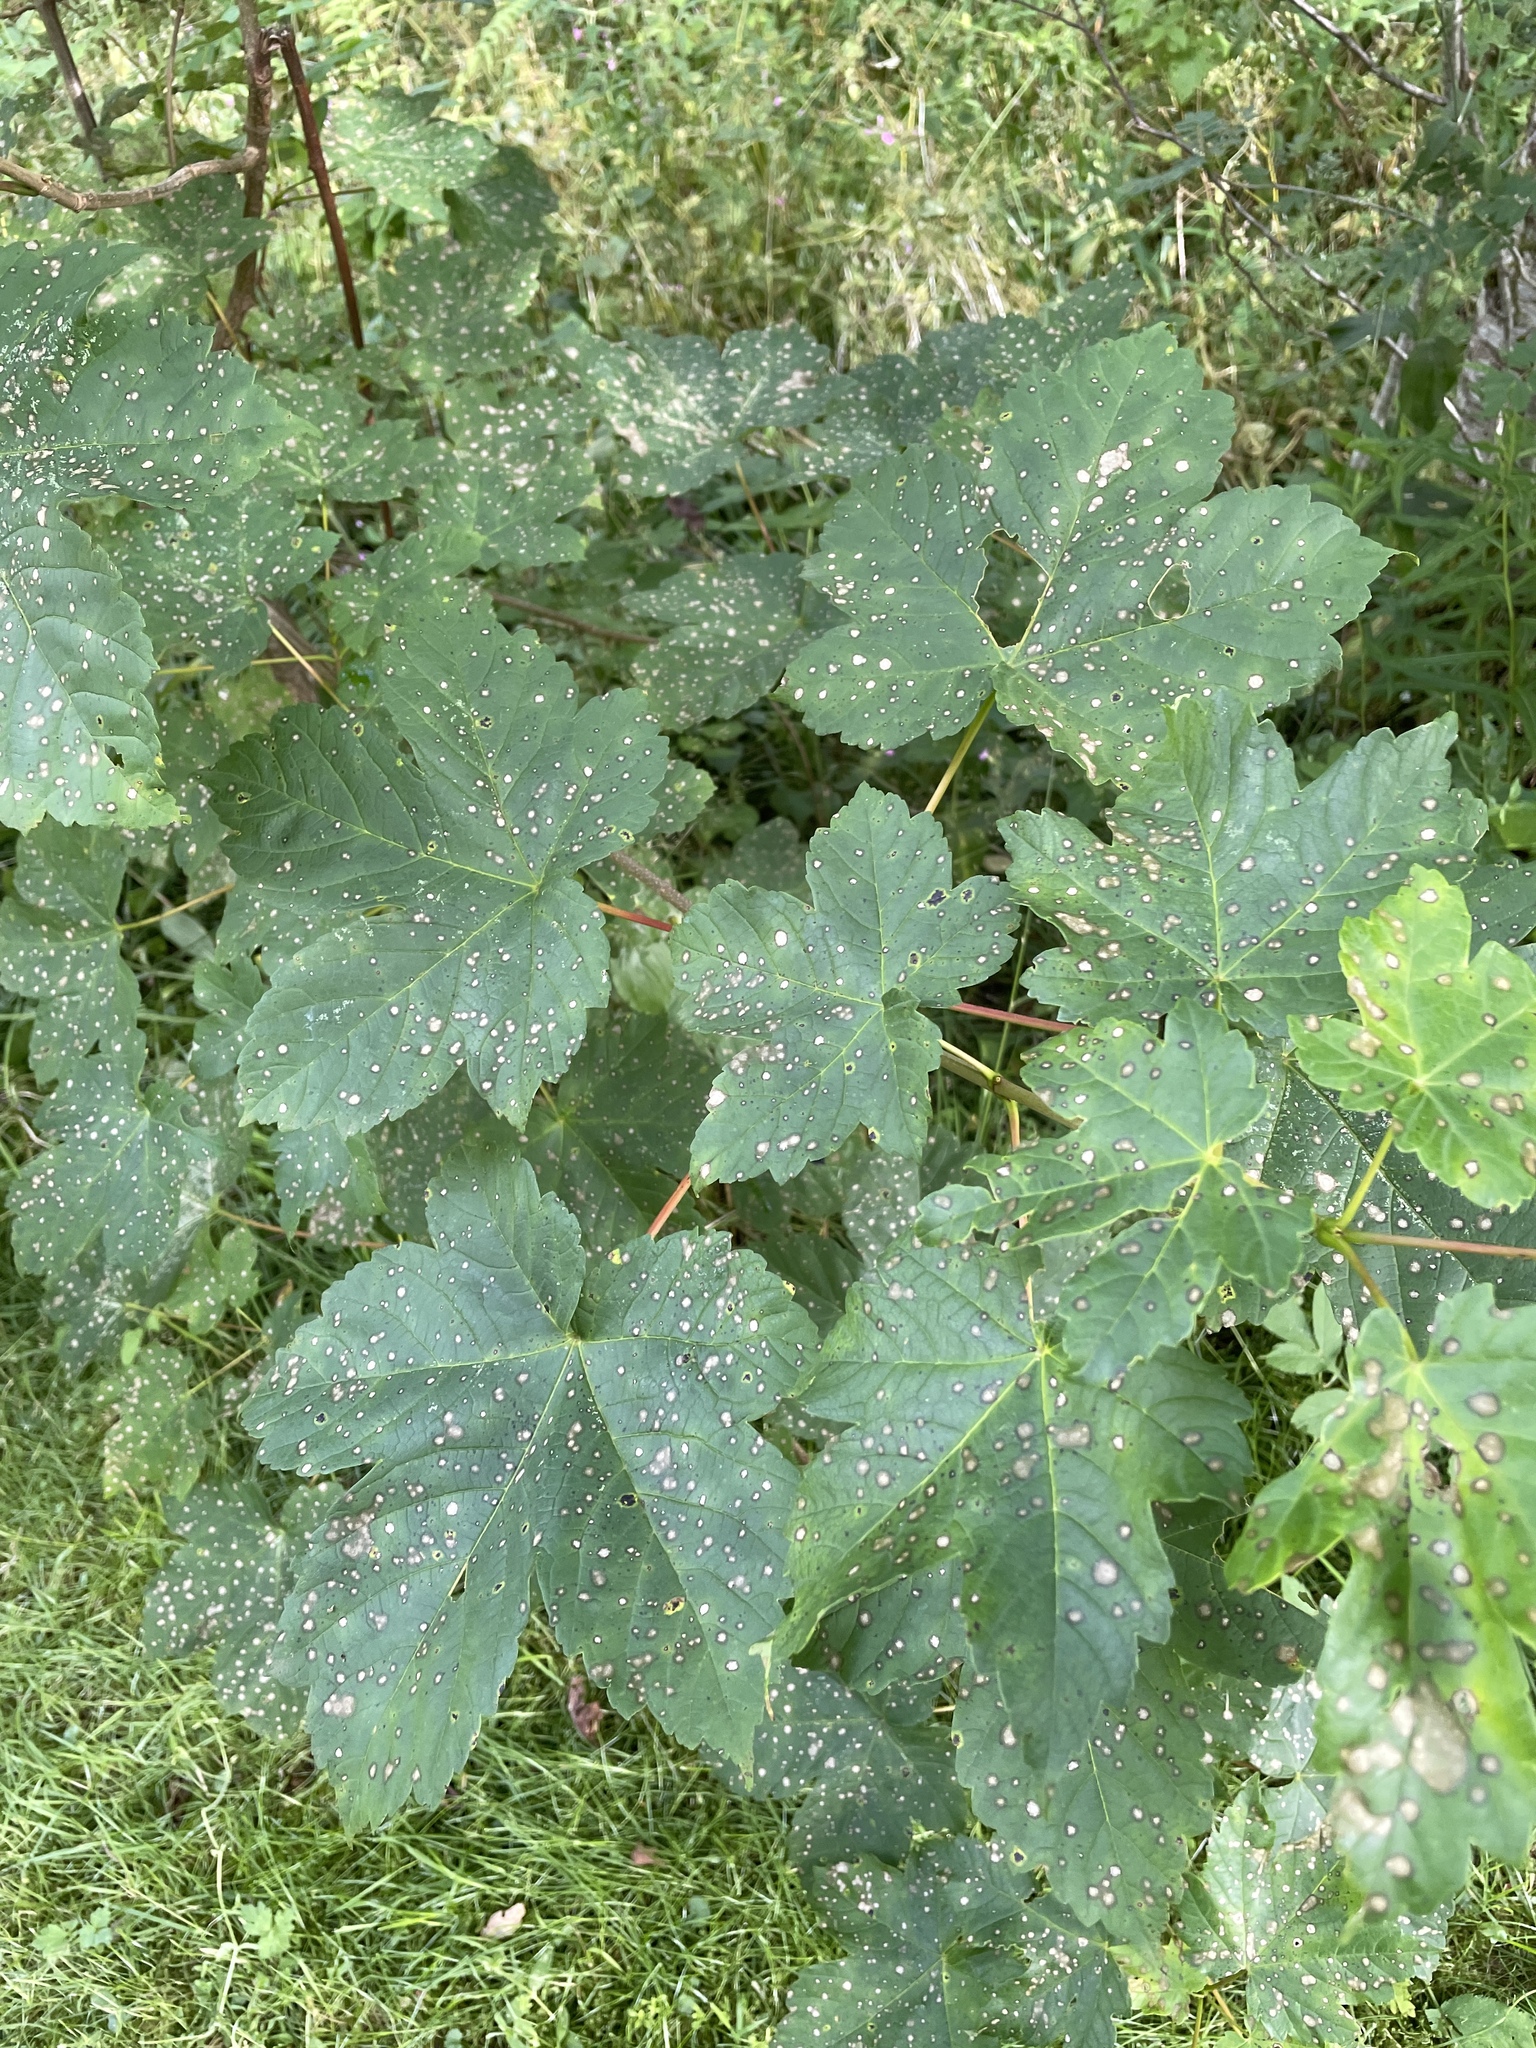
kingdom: Plantae
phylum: Tracheophyta
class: Magnoliopsida
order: Sapindales
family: Sapindaceae
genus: Acer
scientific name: Acer pseudoplatanus
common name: Sycamore
